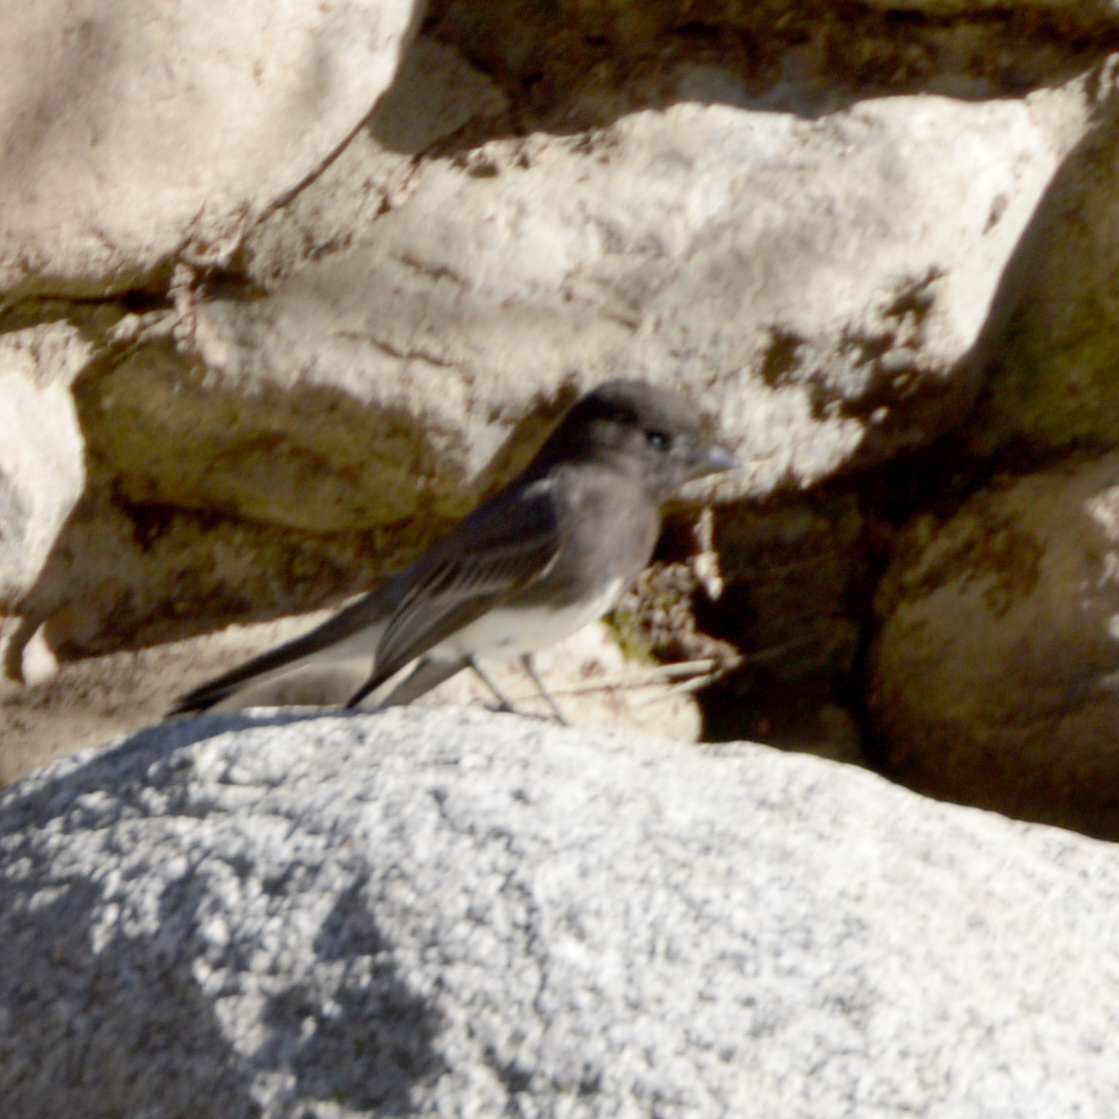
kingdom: Animalia
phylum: Chordata
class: Aves
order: Passeriformes
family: Tyrannidae
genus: Sayornis
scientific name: Sayornis nigricans
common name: Black phoebe
